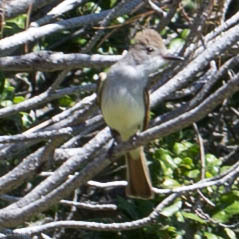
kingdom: Animalia
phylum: Chordata
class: Aves
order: Passeriformes
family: Tyrannidae
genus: Myiarchus
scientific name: Myiarchus cinerascens
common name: Ash-throated flycatcher
